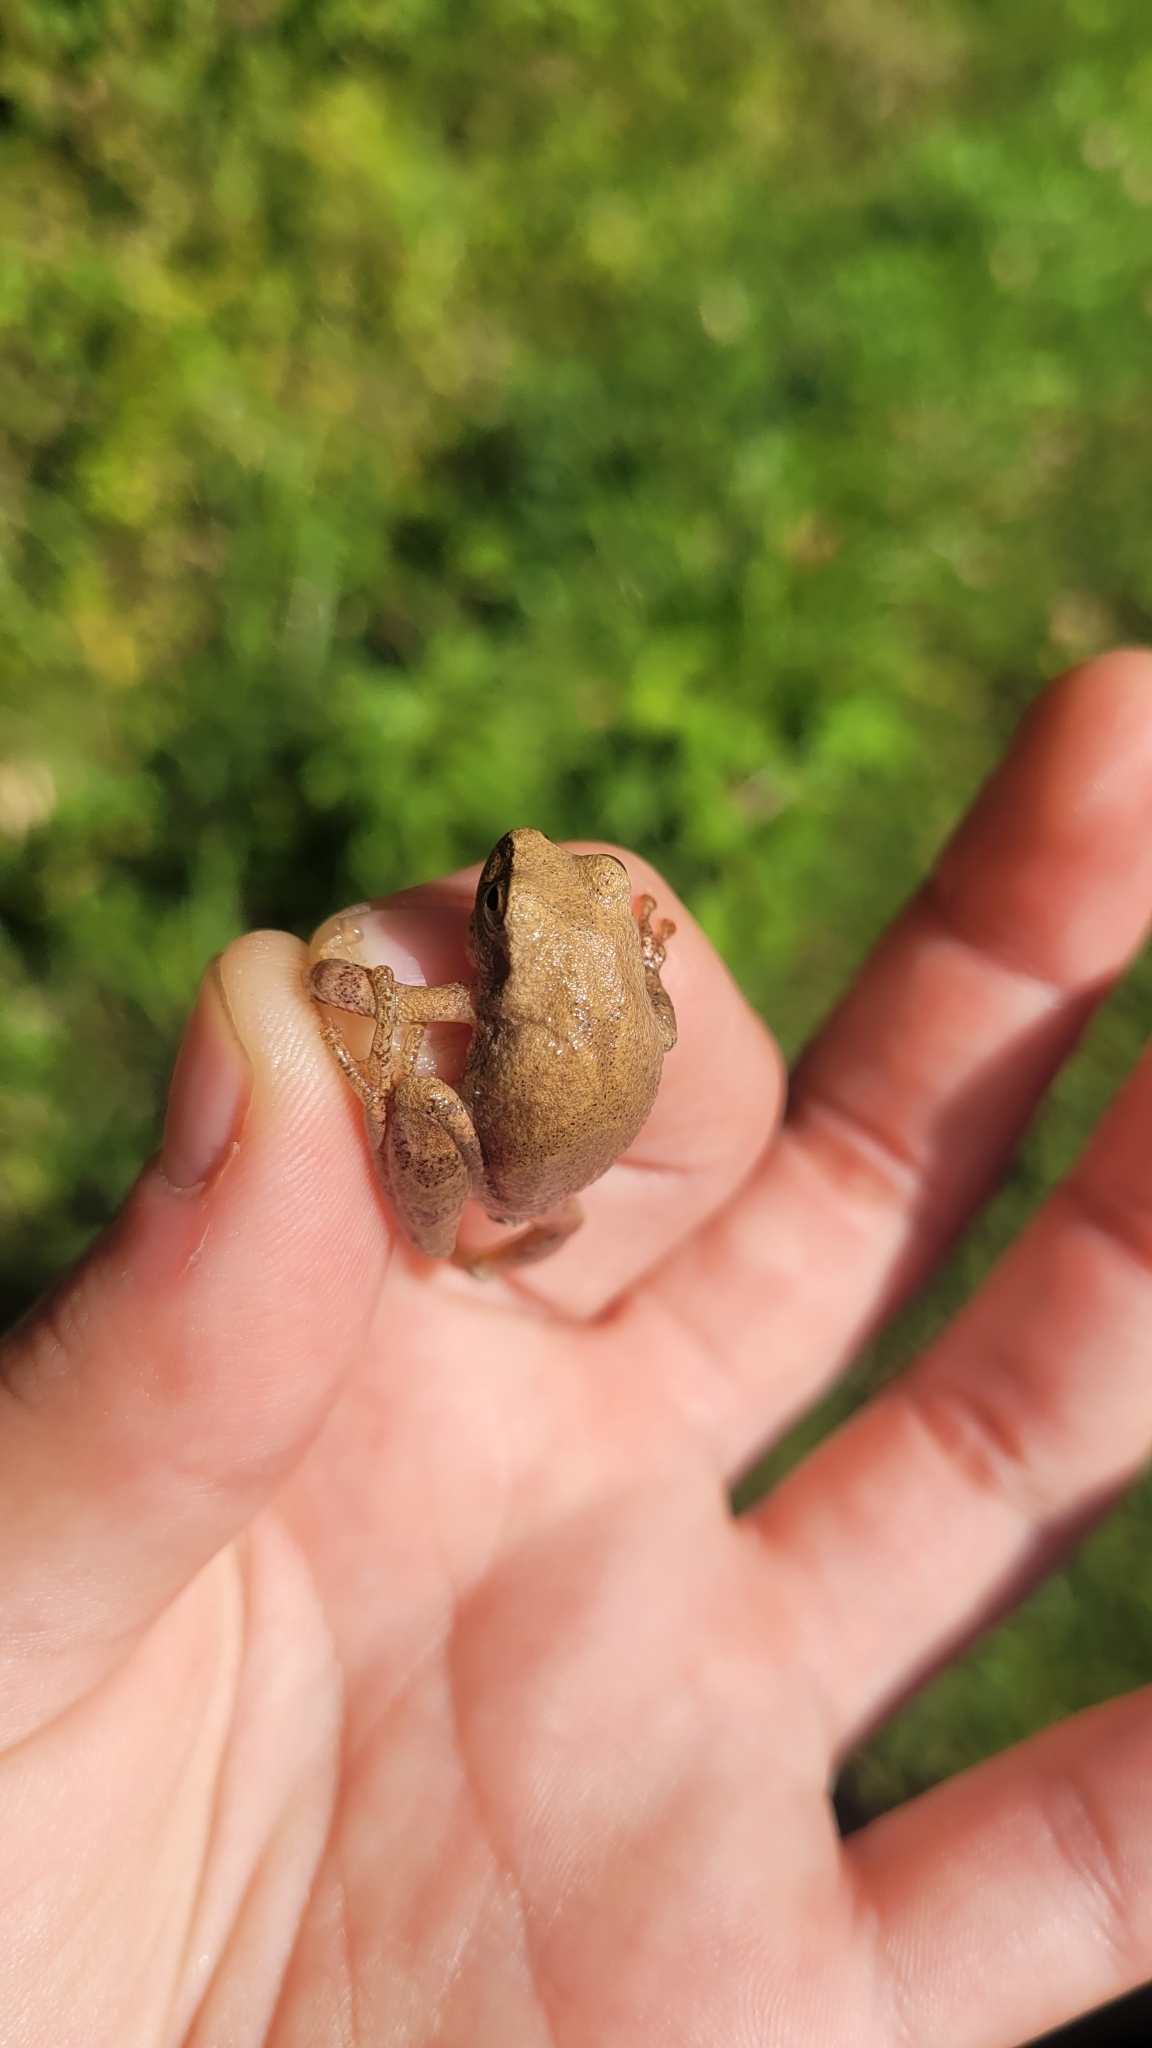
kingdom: Animalia
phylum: Chordata
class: Amphibia
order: Anura
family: Hylidae
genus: Pseudacris
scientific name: Pseudacris crucifer
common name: Spring peeper
